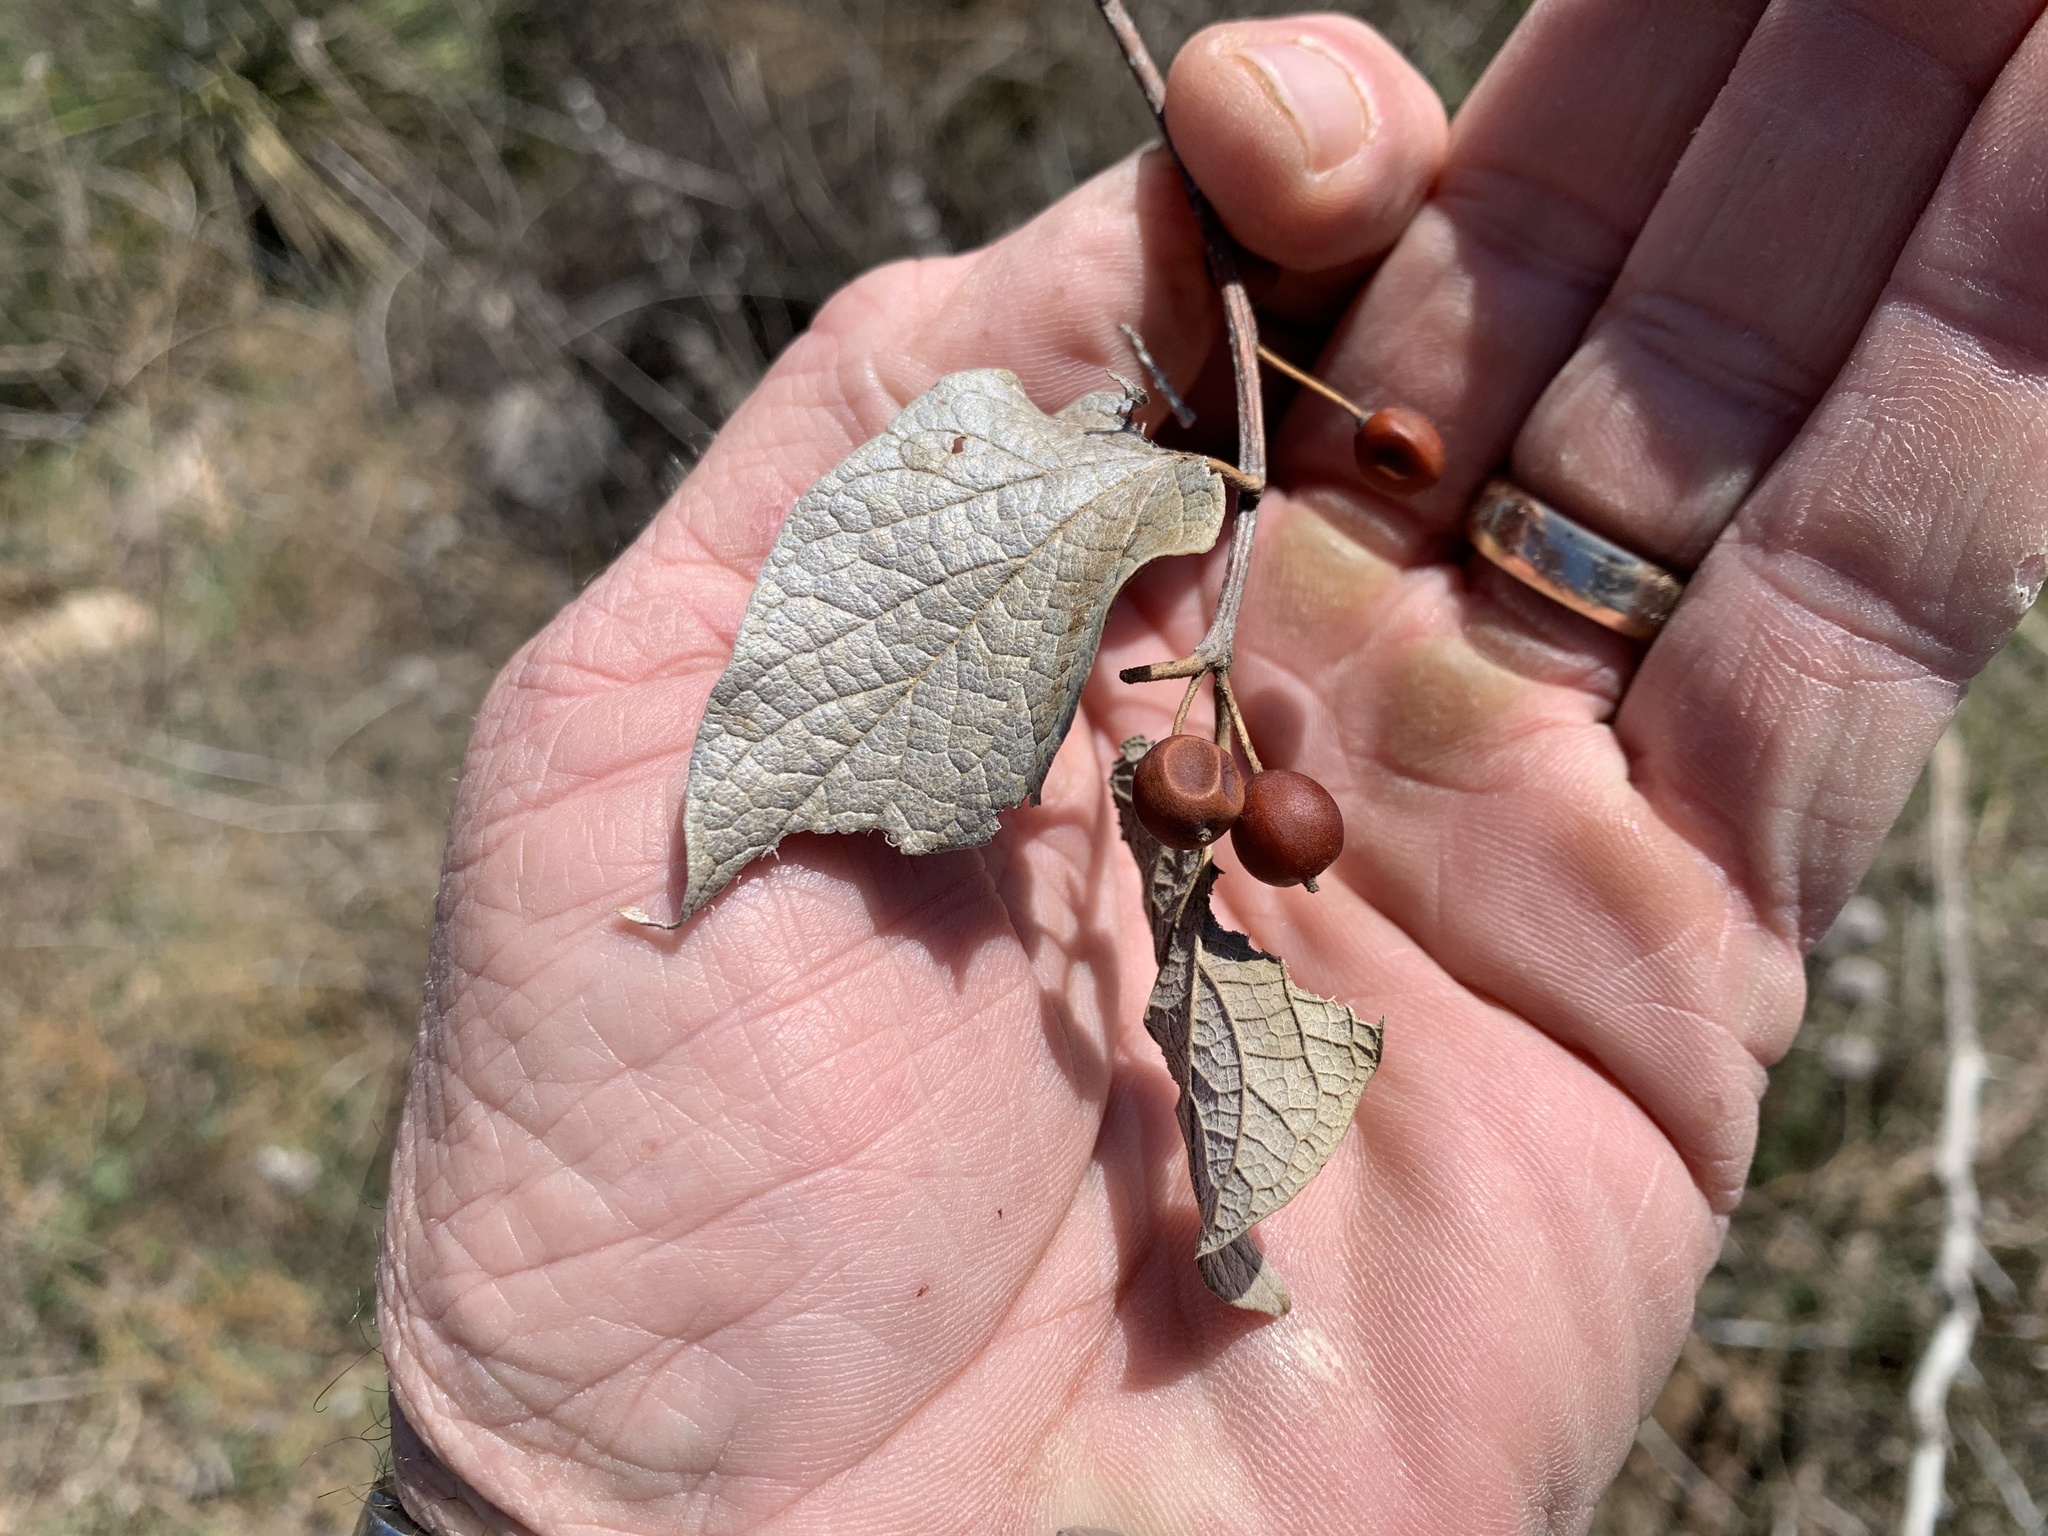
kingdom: Plantae
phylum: Tracheophyta
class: Magnoliopsida
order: Rosales
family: Cannabaceae
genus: Celtis
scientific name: Celtis reticulata
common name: Netleaf hackberry
